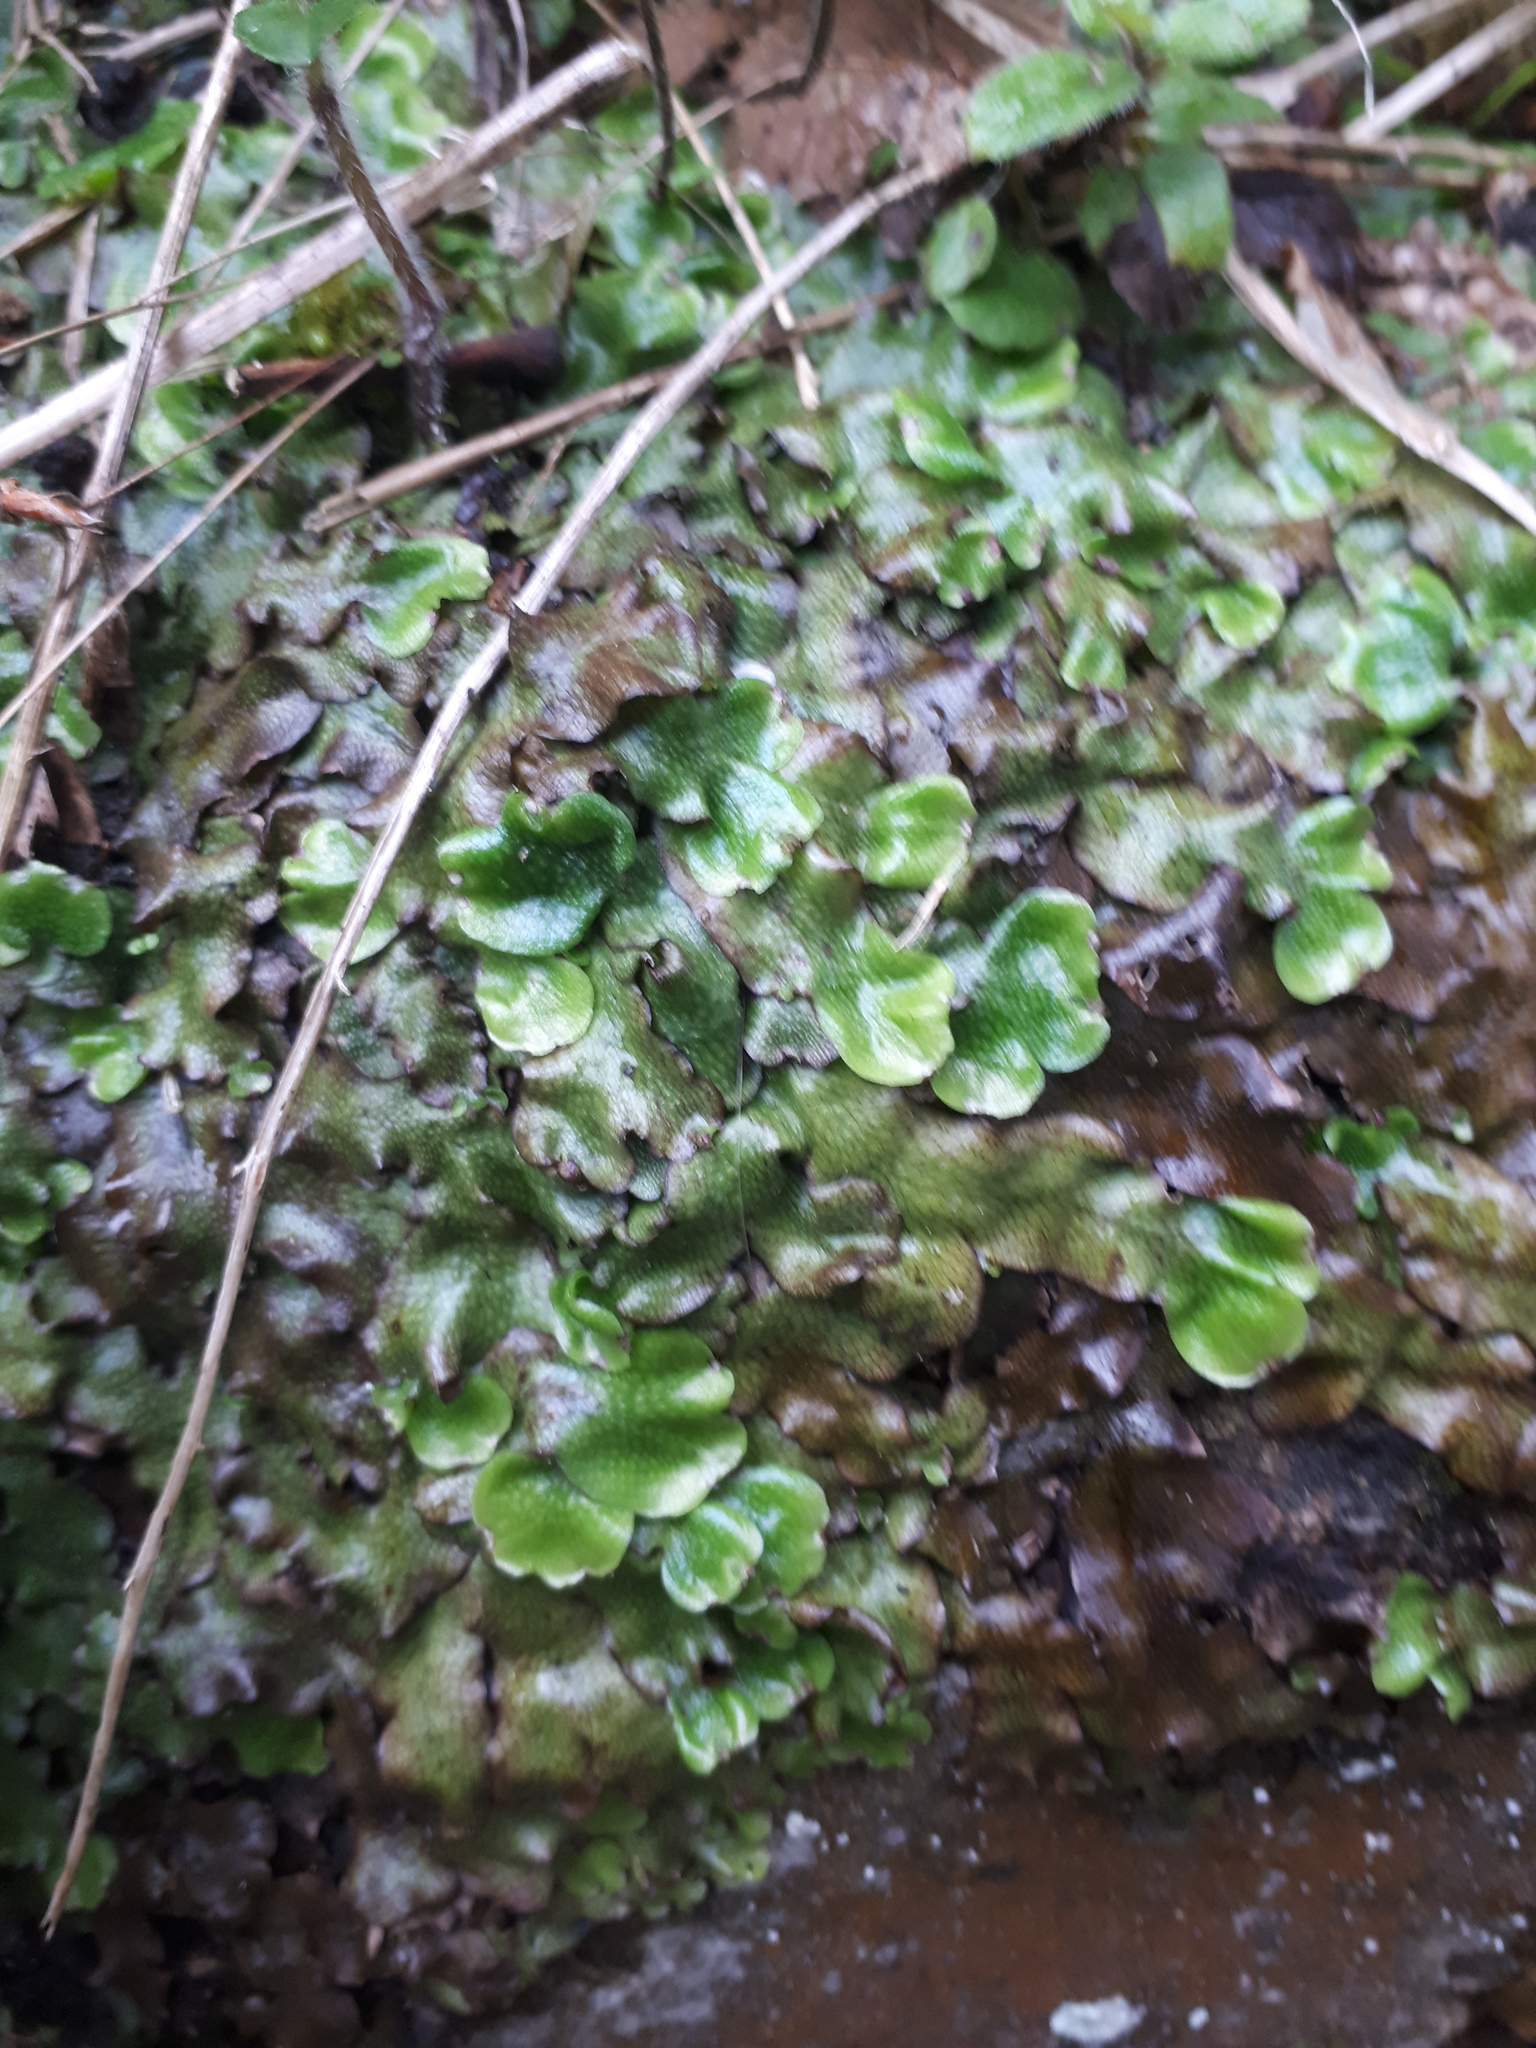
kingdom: Plantae
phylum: Marchantiophyta
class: Marchantiopsida
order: Marchantiales
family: Conocephalaceae
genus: Conocephalum
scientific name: Conocephalum conicum
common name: Great scented liverwort
